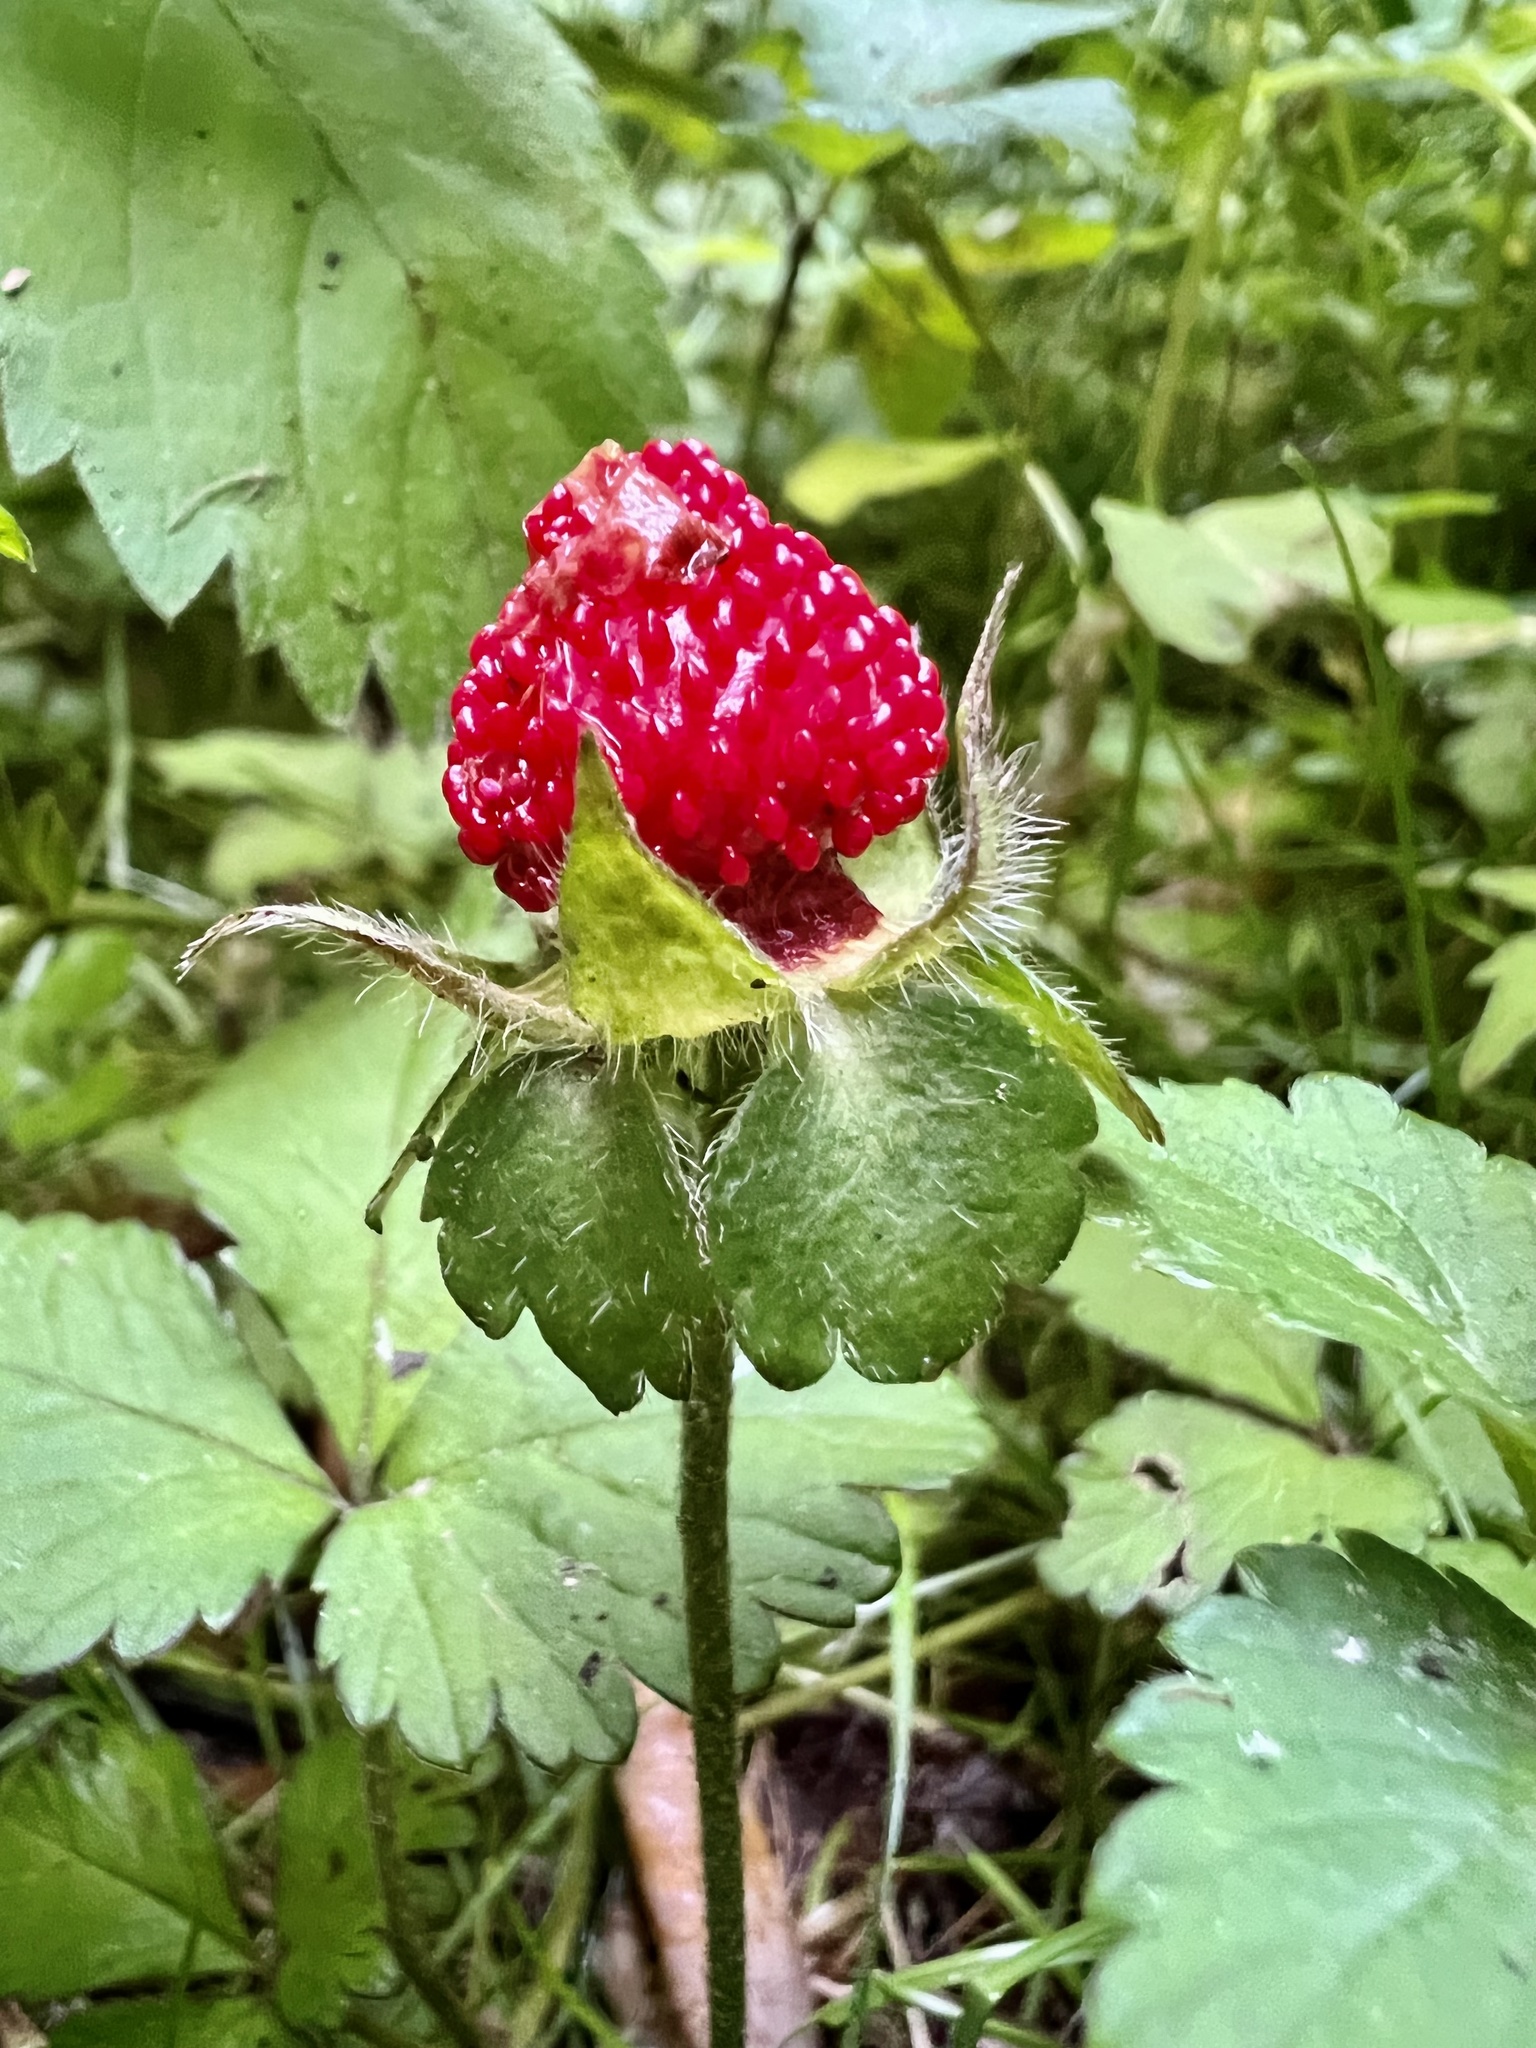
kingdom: Plantae
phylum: Tracheophyta
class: Magnoliopsida
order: Rosales
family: Rosaceae
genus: Potentilla
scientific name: Potentilla indica
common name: Yellow-flowered strawberry
